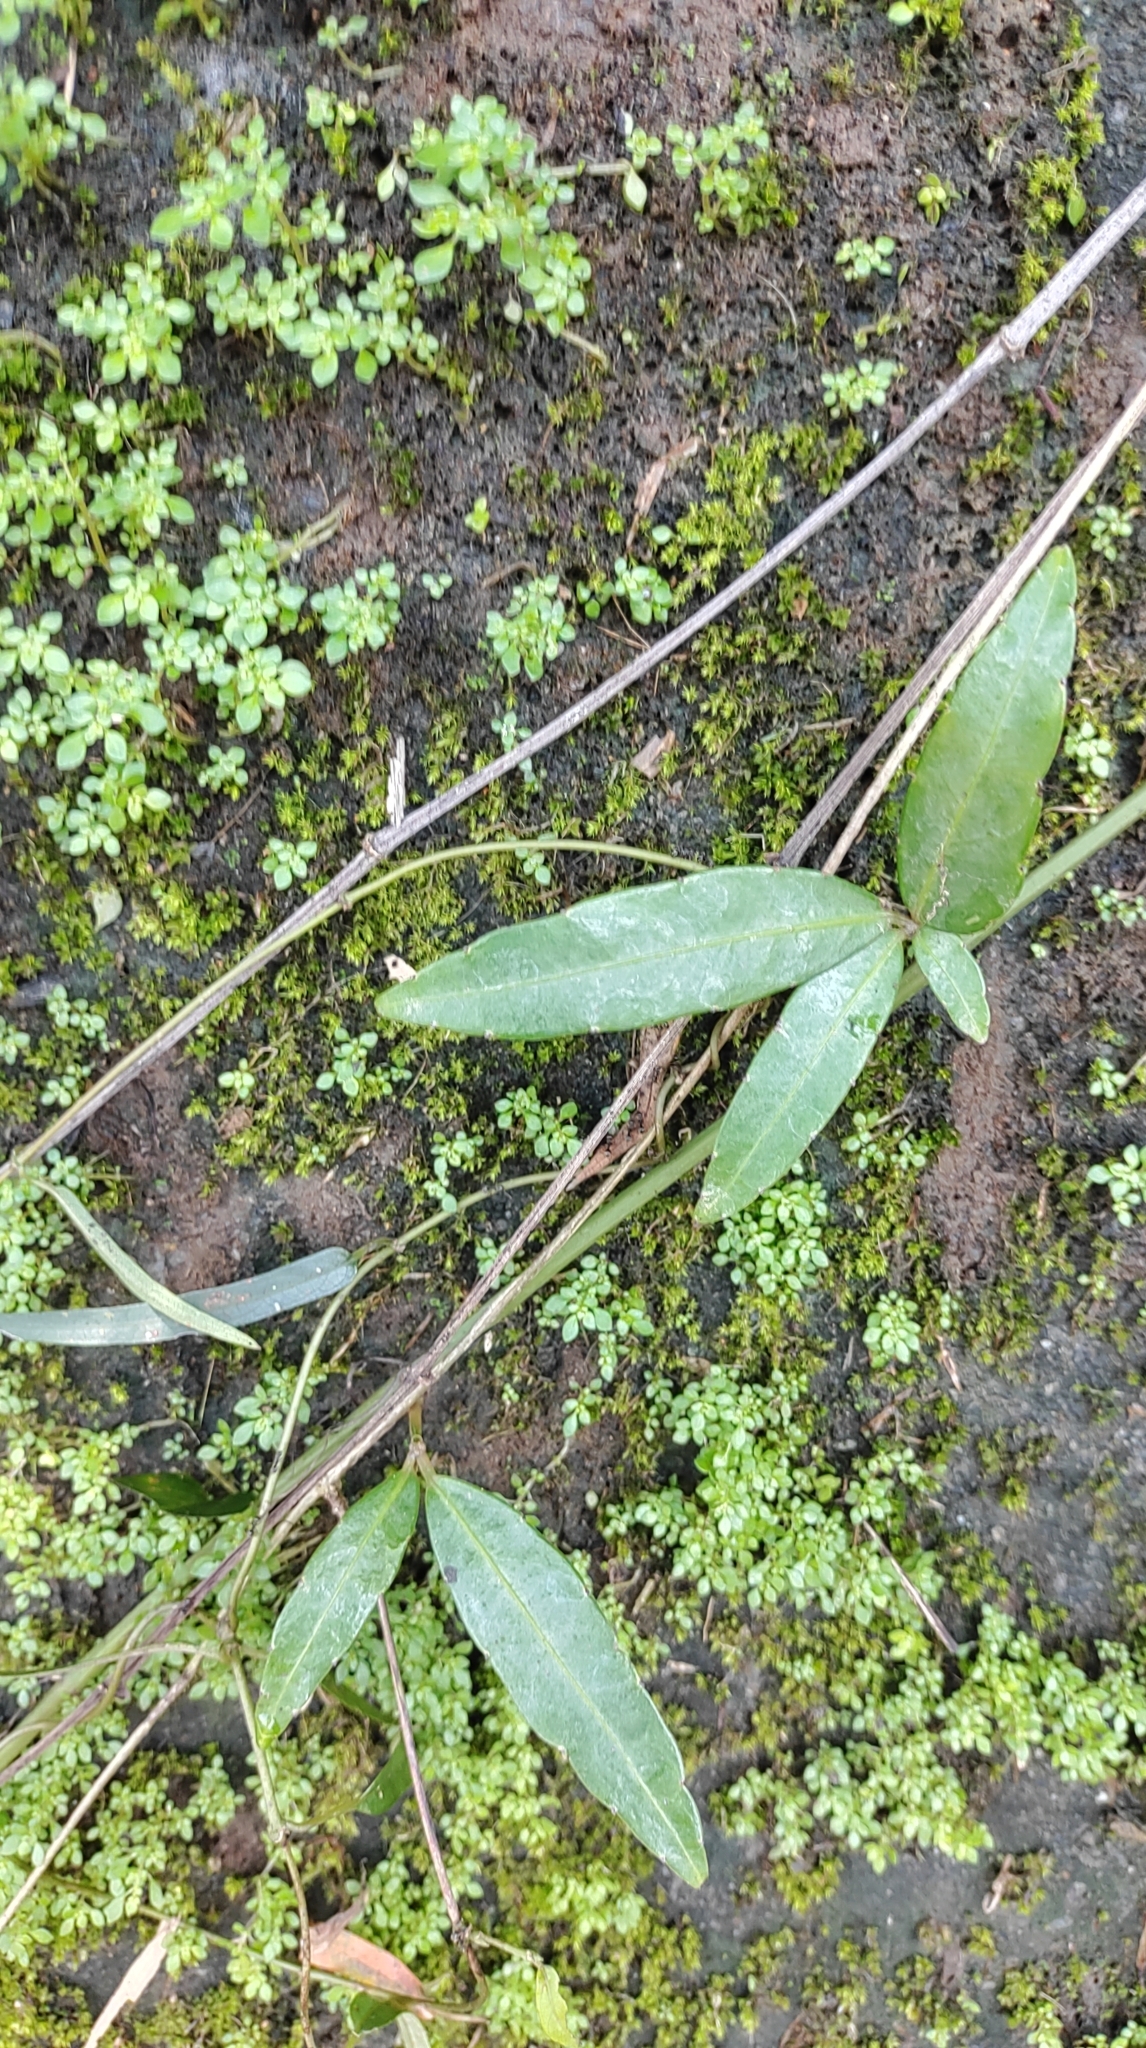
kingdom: Plantae
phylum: Tracheophyta
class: Magnoliopsida
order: Vitales
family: Vitaceae
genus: Tetrastigma
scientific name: Tetrastigma formosanum
